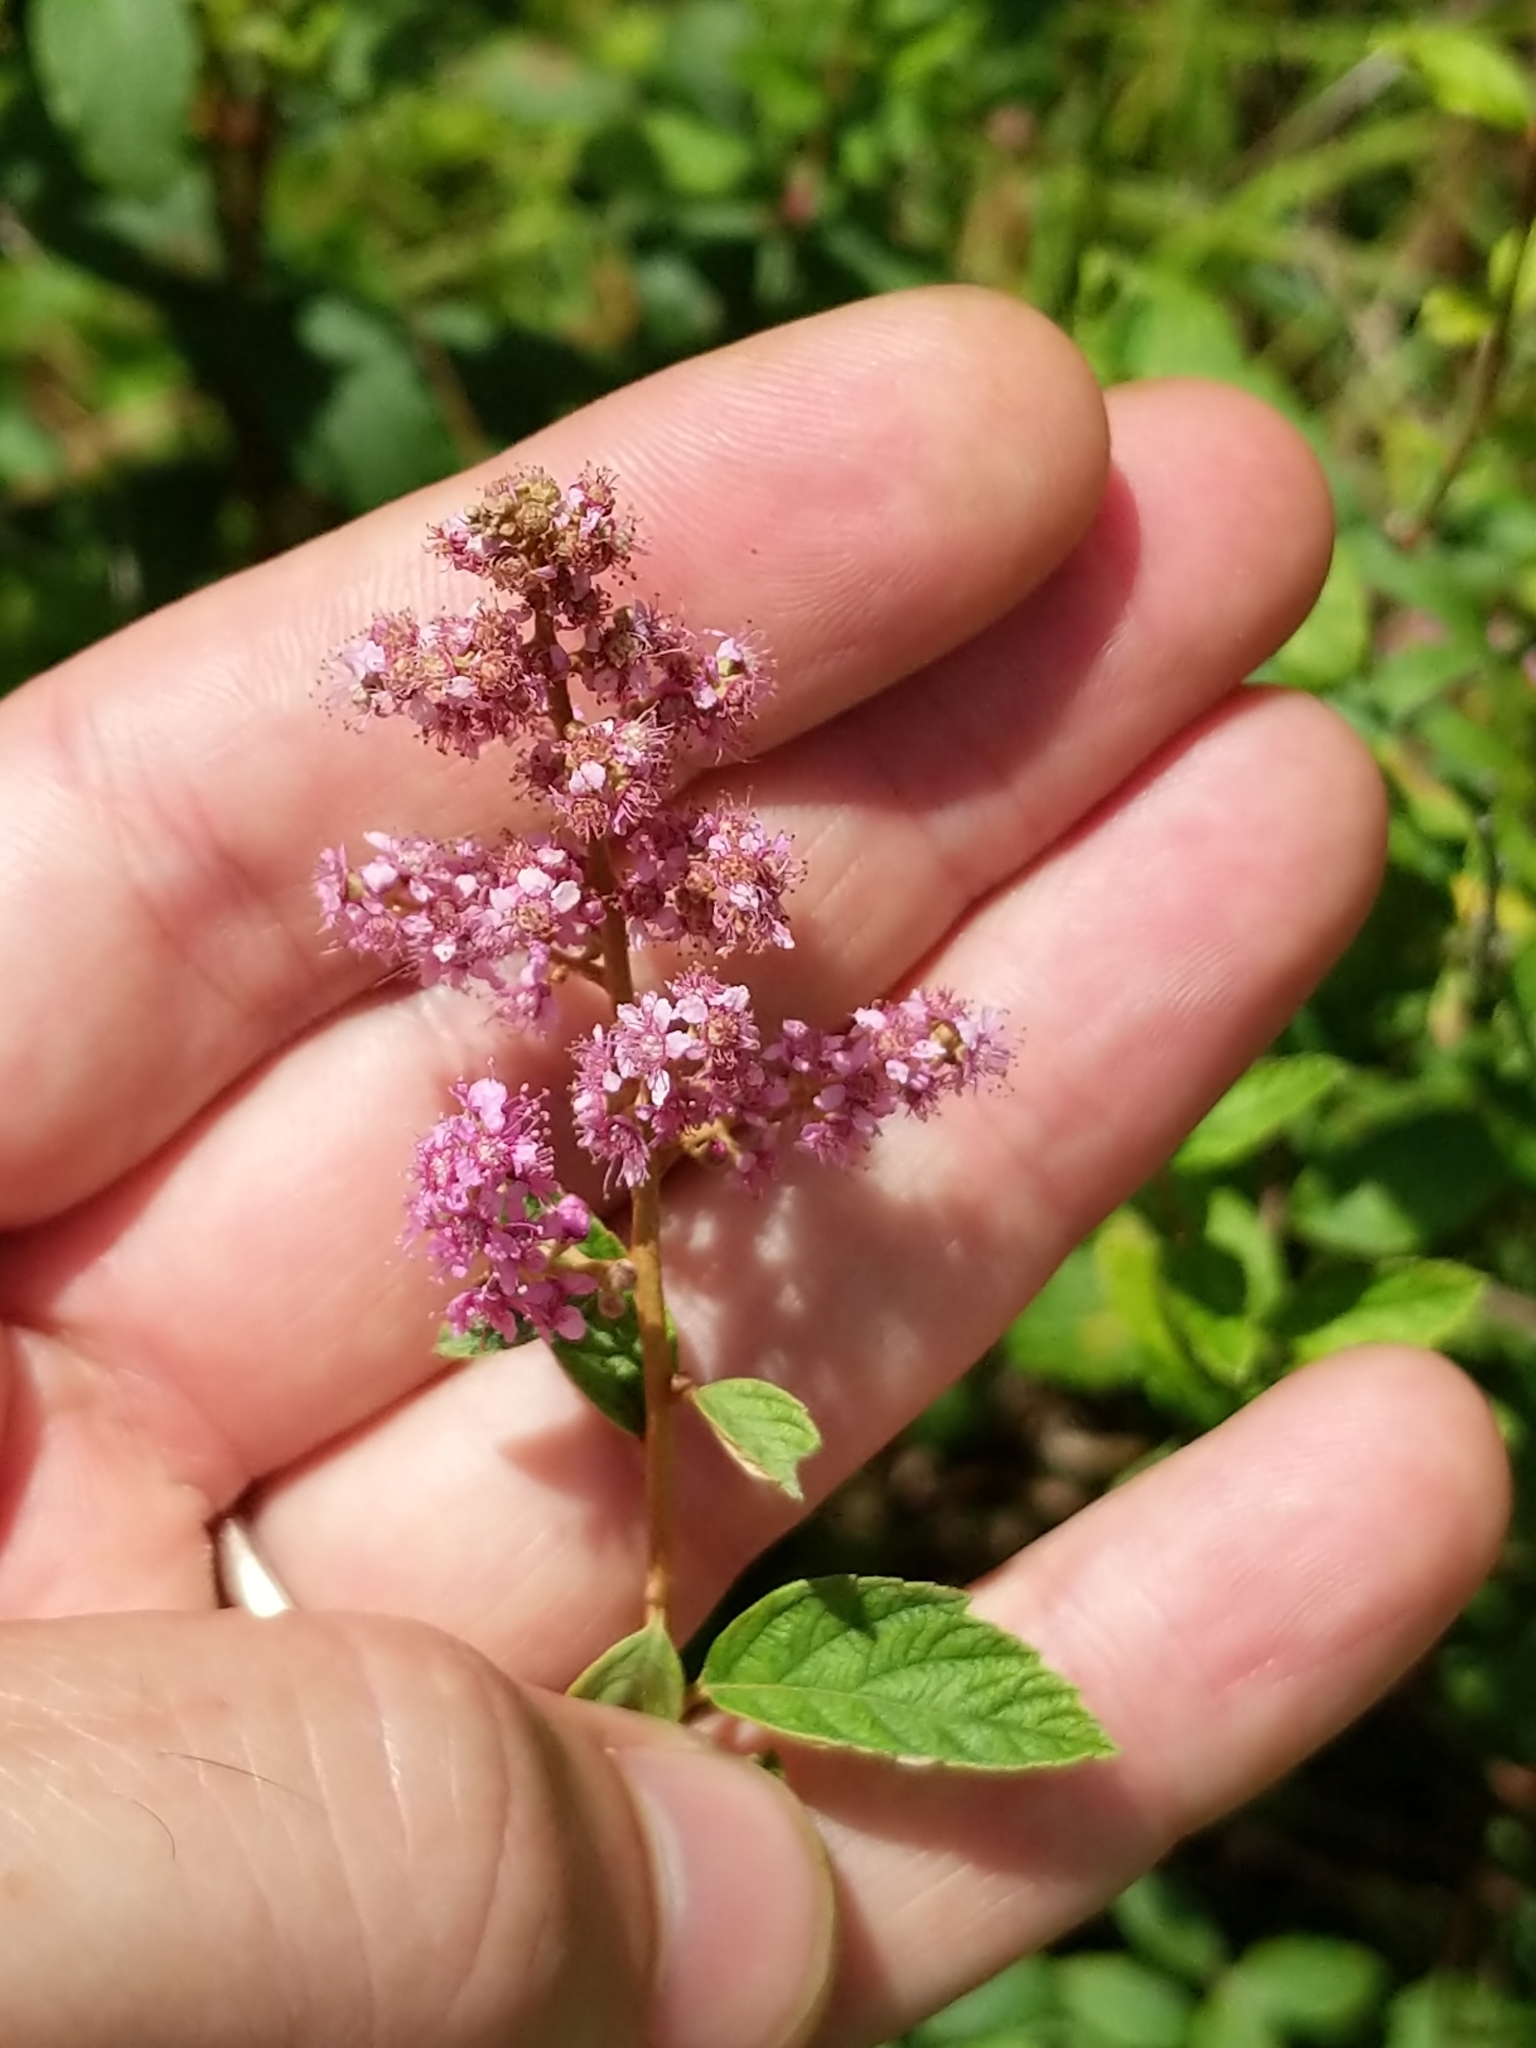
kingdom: Plantae
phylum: Tracheophyta
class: Magnoliopsida
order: Rosales
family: Rosaceae
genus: Spiraea
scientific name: Spiraea tomentosa
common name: Hardhack
